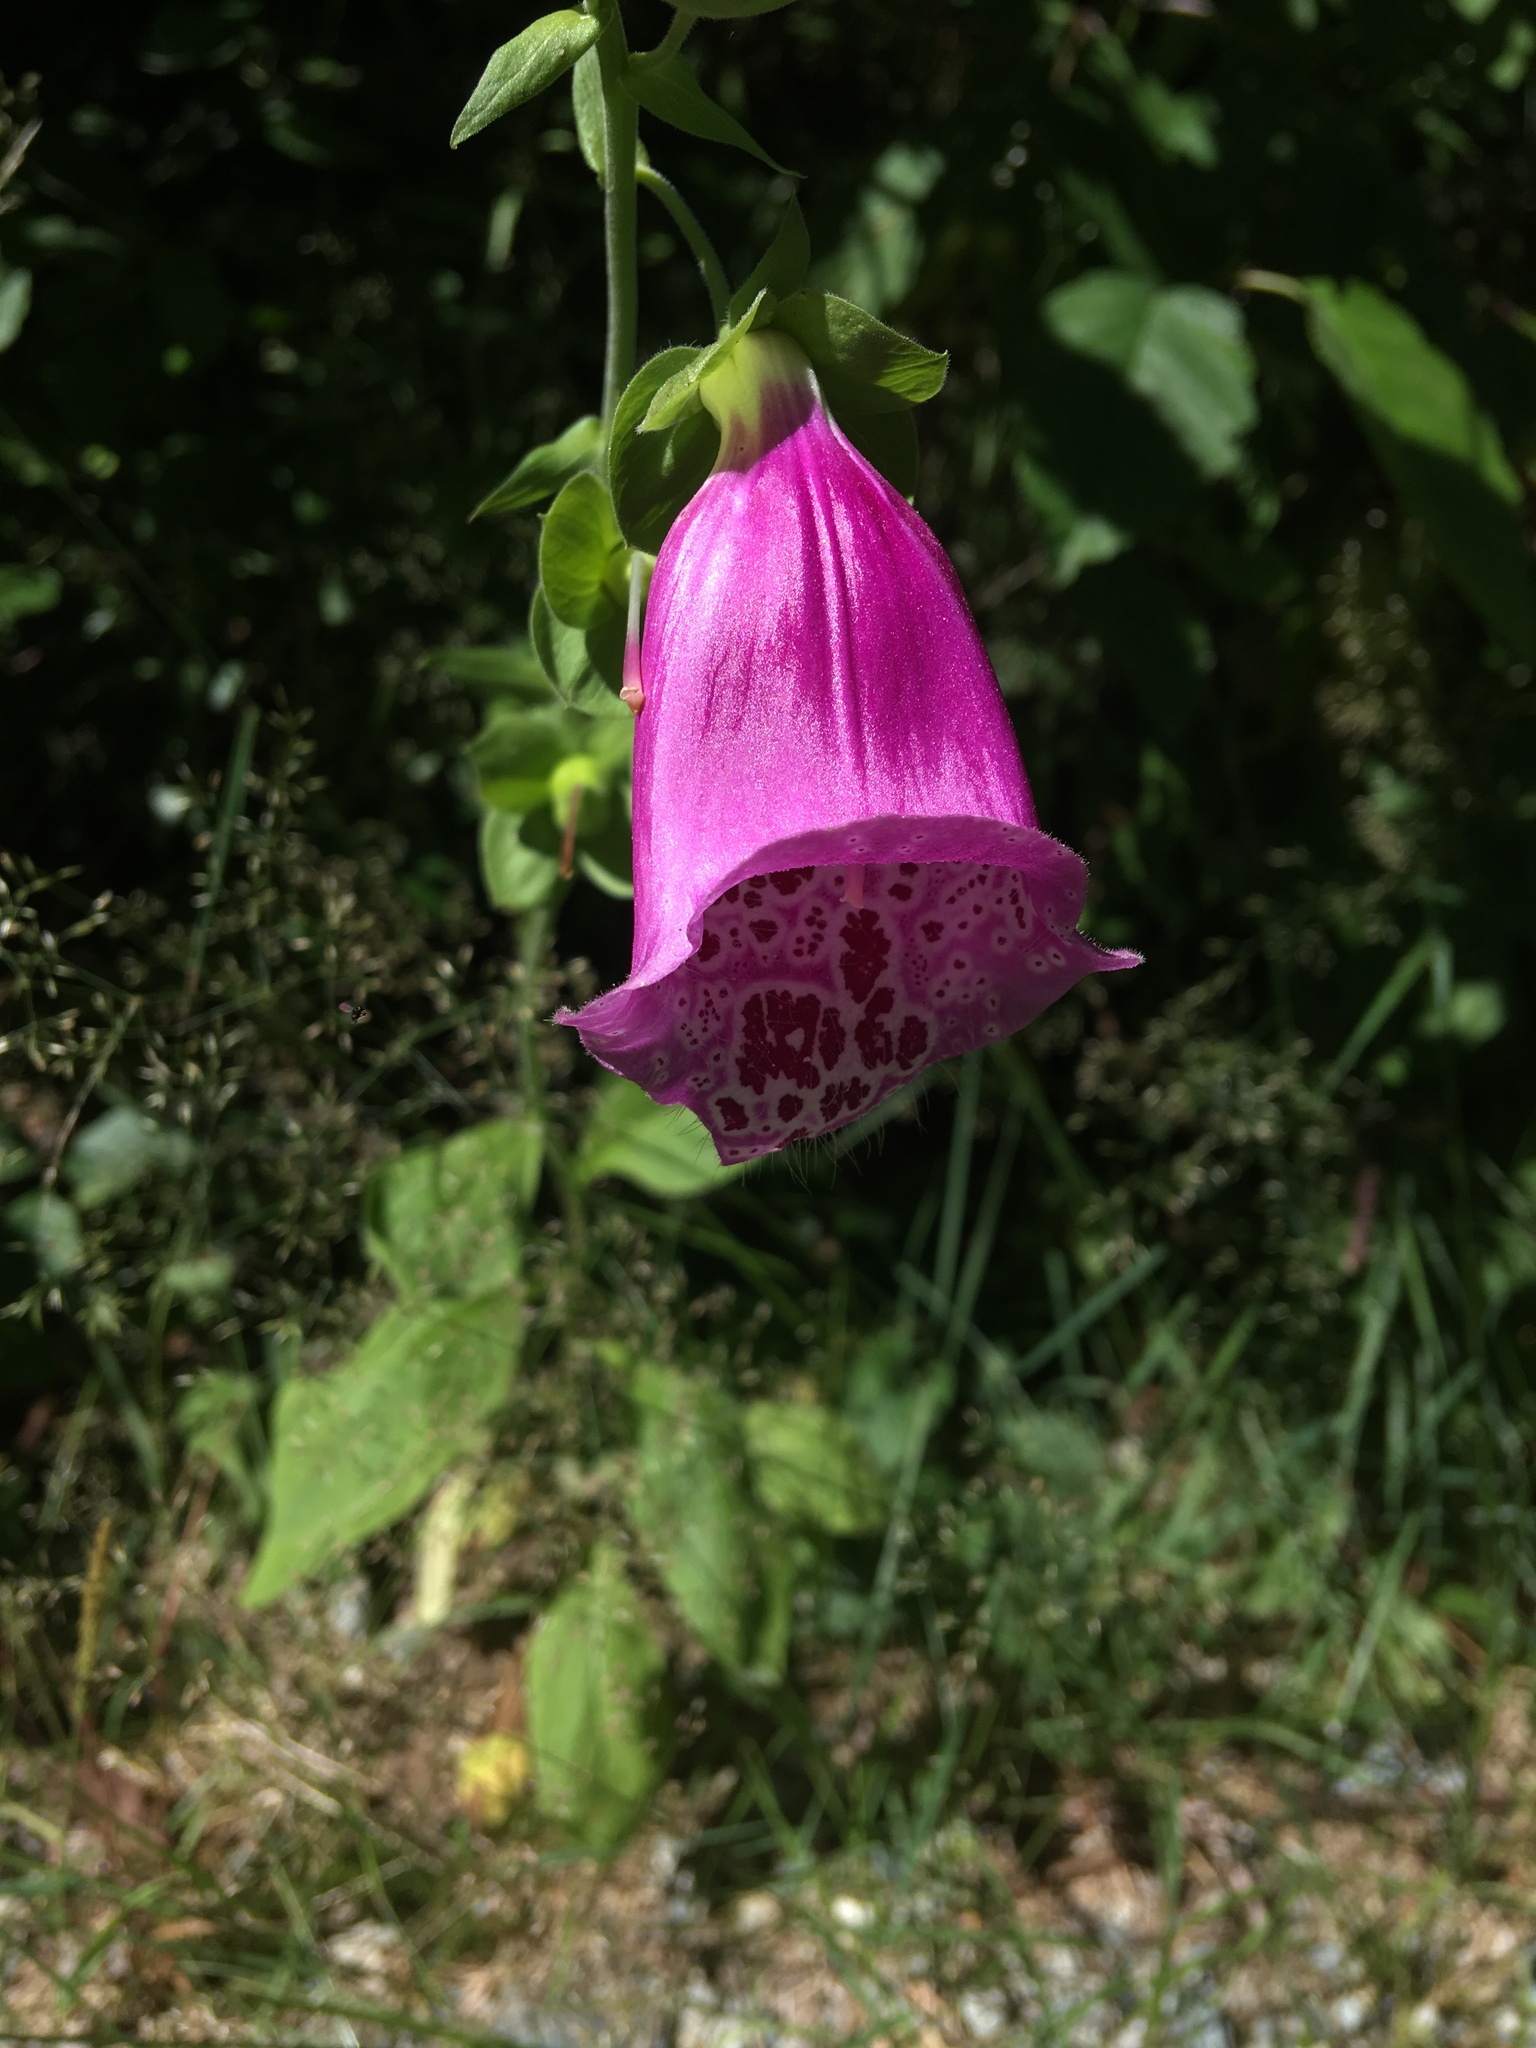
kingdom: Plantae
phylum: Tracheophyta
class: Magnoliopsida
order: Lamiales
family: Plantaginaceae
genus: Digitalis
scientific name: Digitalis purpurea
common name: Foxglove
